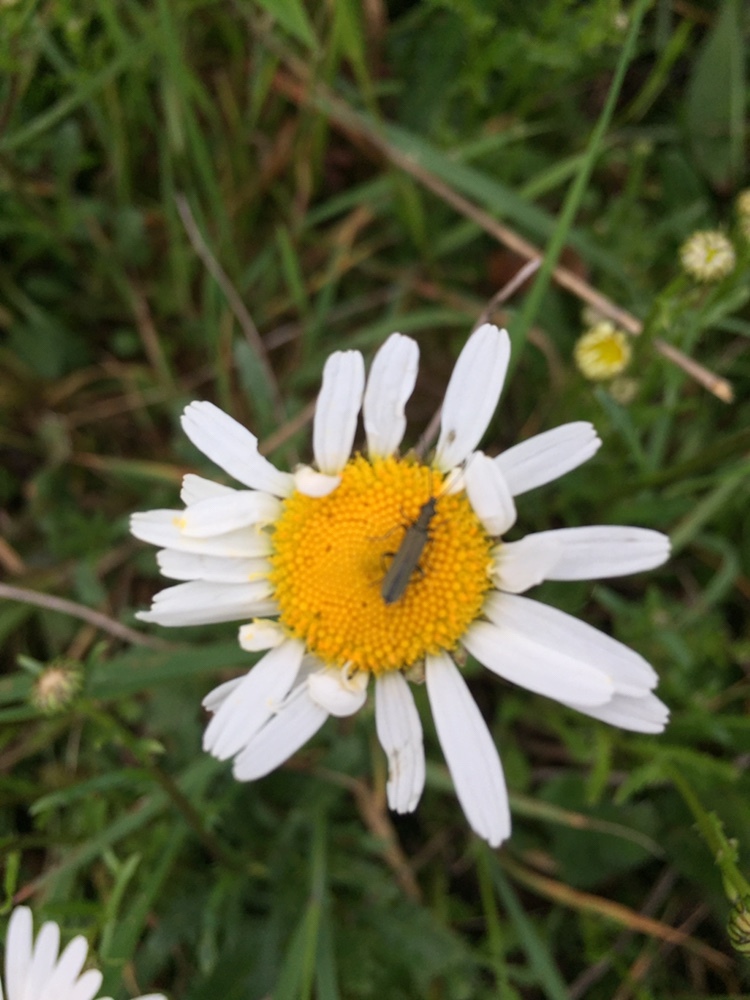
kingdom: Plantae
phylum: Tracheophyta
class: Magnoliopsida
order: Asterales
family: Asteraceae
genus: Leucanthemum
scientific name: Leucanthemum vulgare
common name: Oxeye daisy
